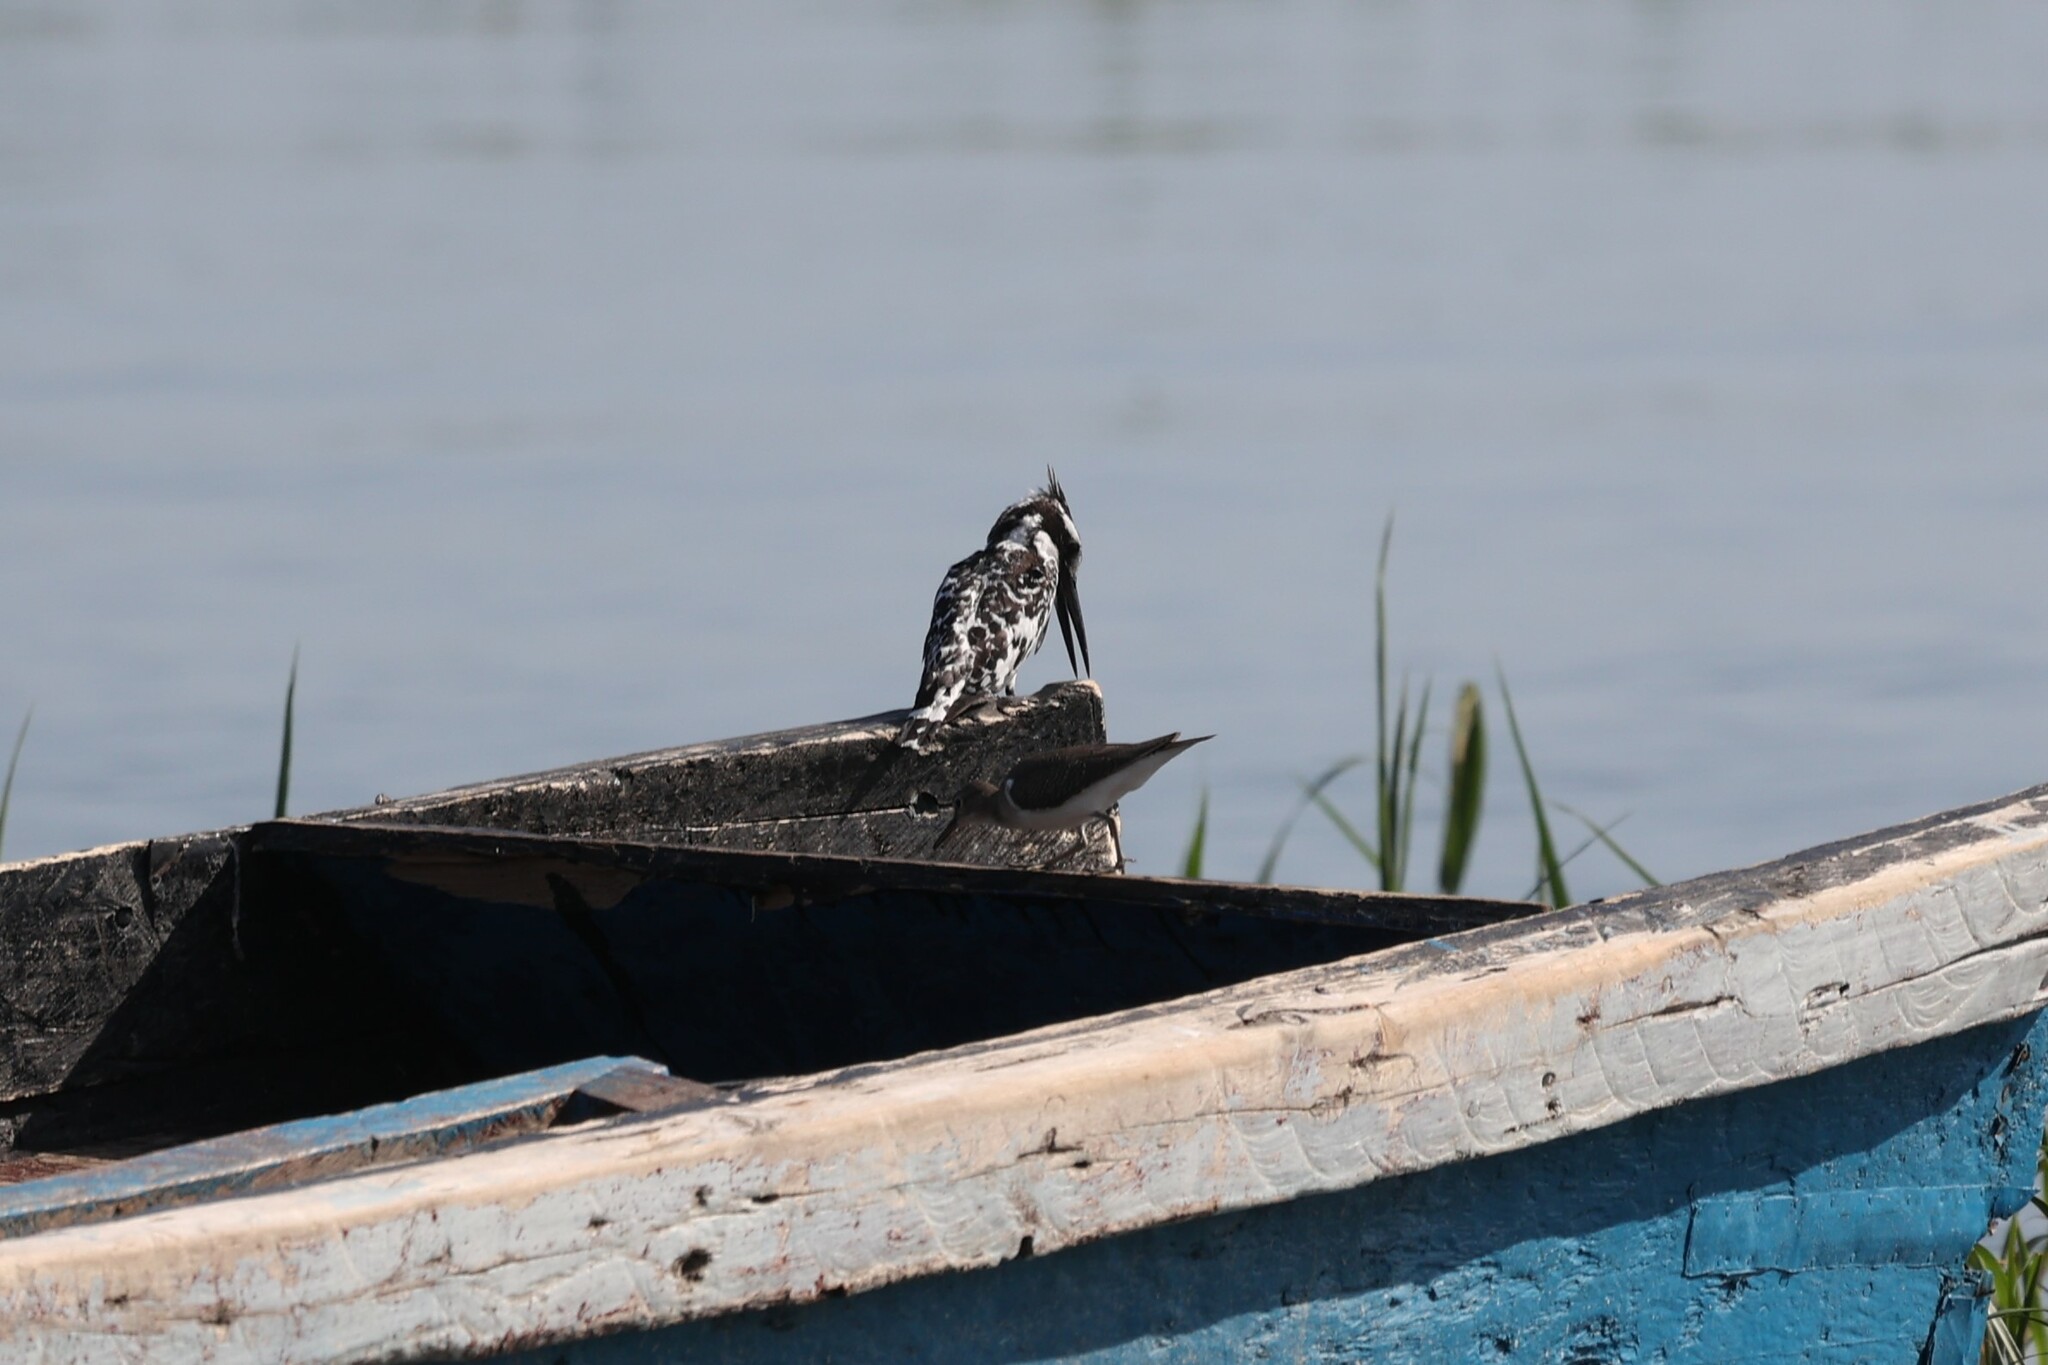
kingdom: Animalia
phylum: Chordata
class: Aves
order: Coraciiformes
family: Alcedinidae
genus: Ceryle
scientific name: Ceryle rudis
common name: Pied kingfisher
